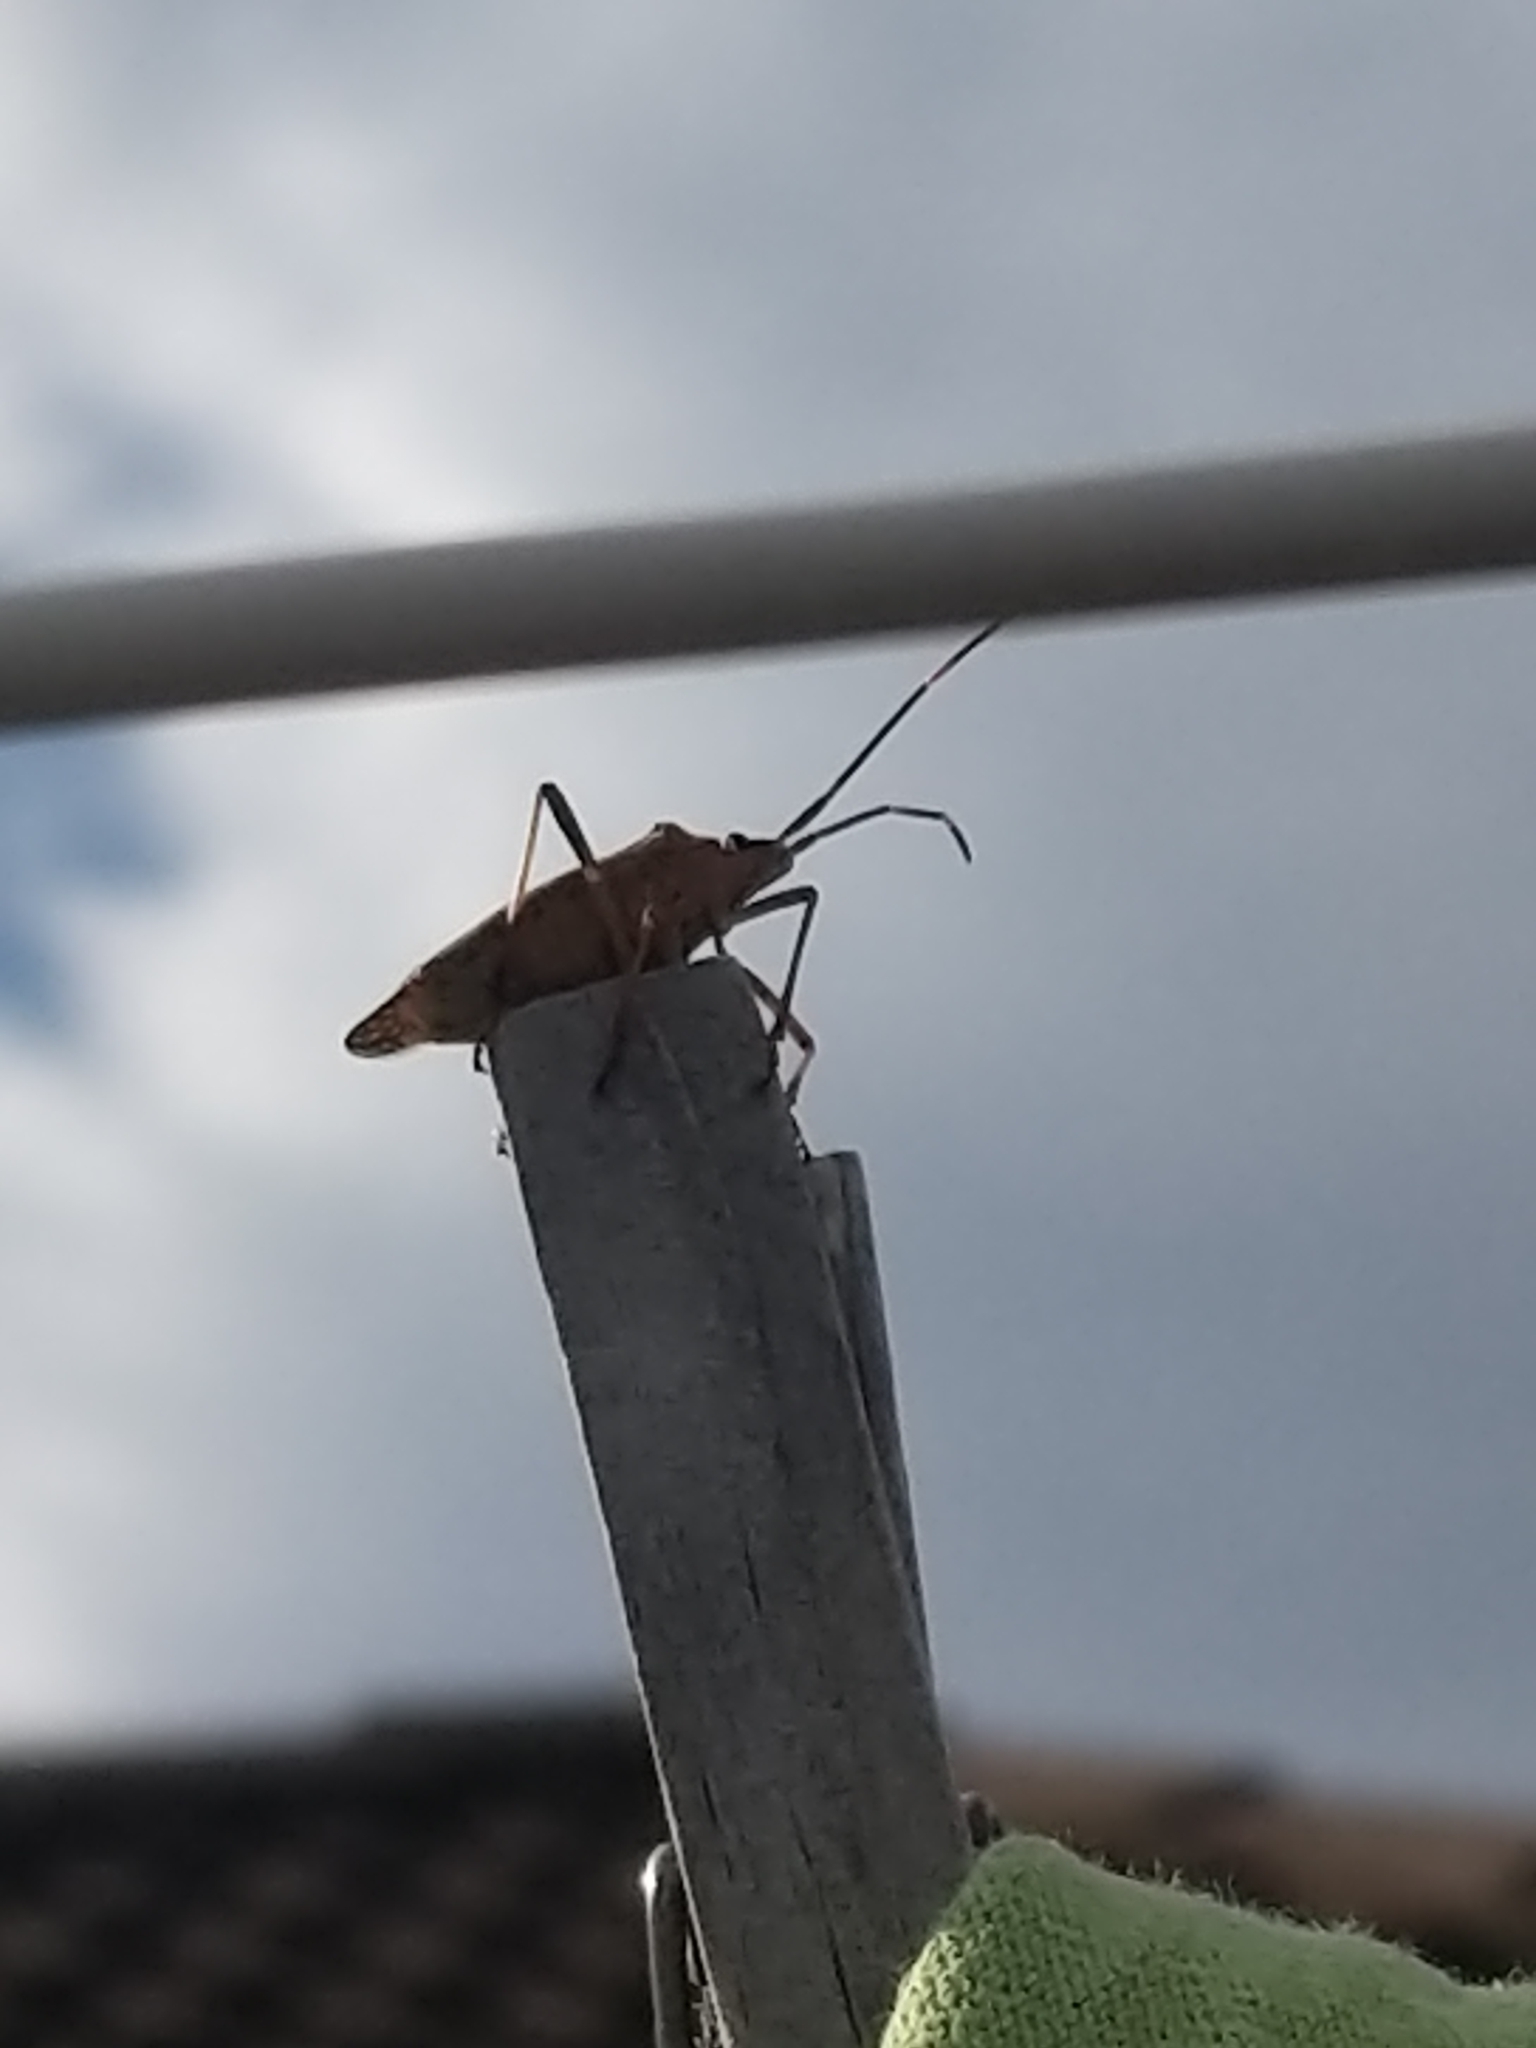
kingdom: Animalia
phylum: Arthropoda
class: Insecta
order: Hemiptera
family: Pentatomidae
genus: Poecilometis
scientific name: Poecilometis
